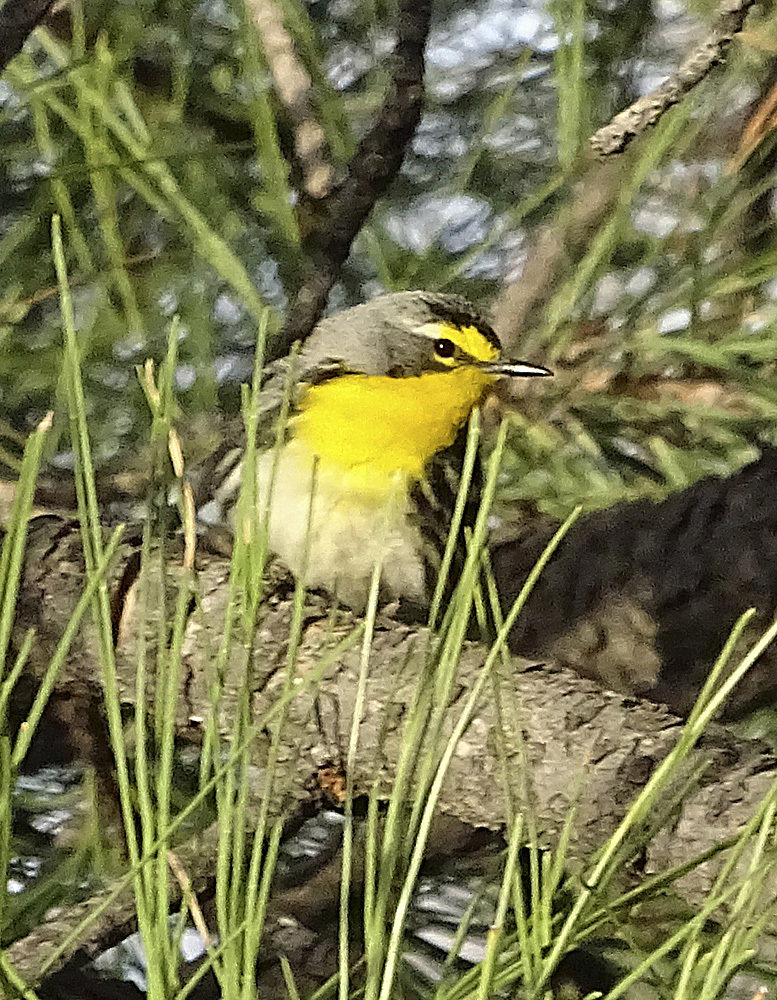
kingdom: Animalia
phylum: Chordata
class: Aves
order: Passeriformes
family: Parulidae
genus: Setophaga
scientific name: Setophaga graciae
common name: Grace's warbler
